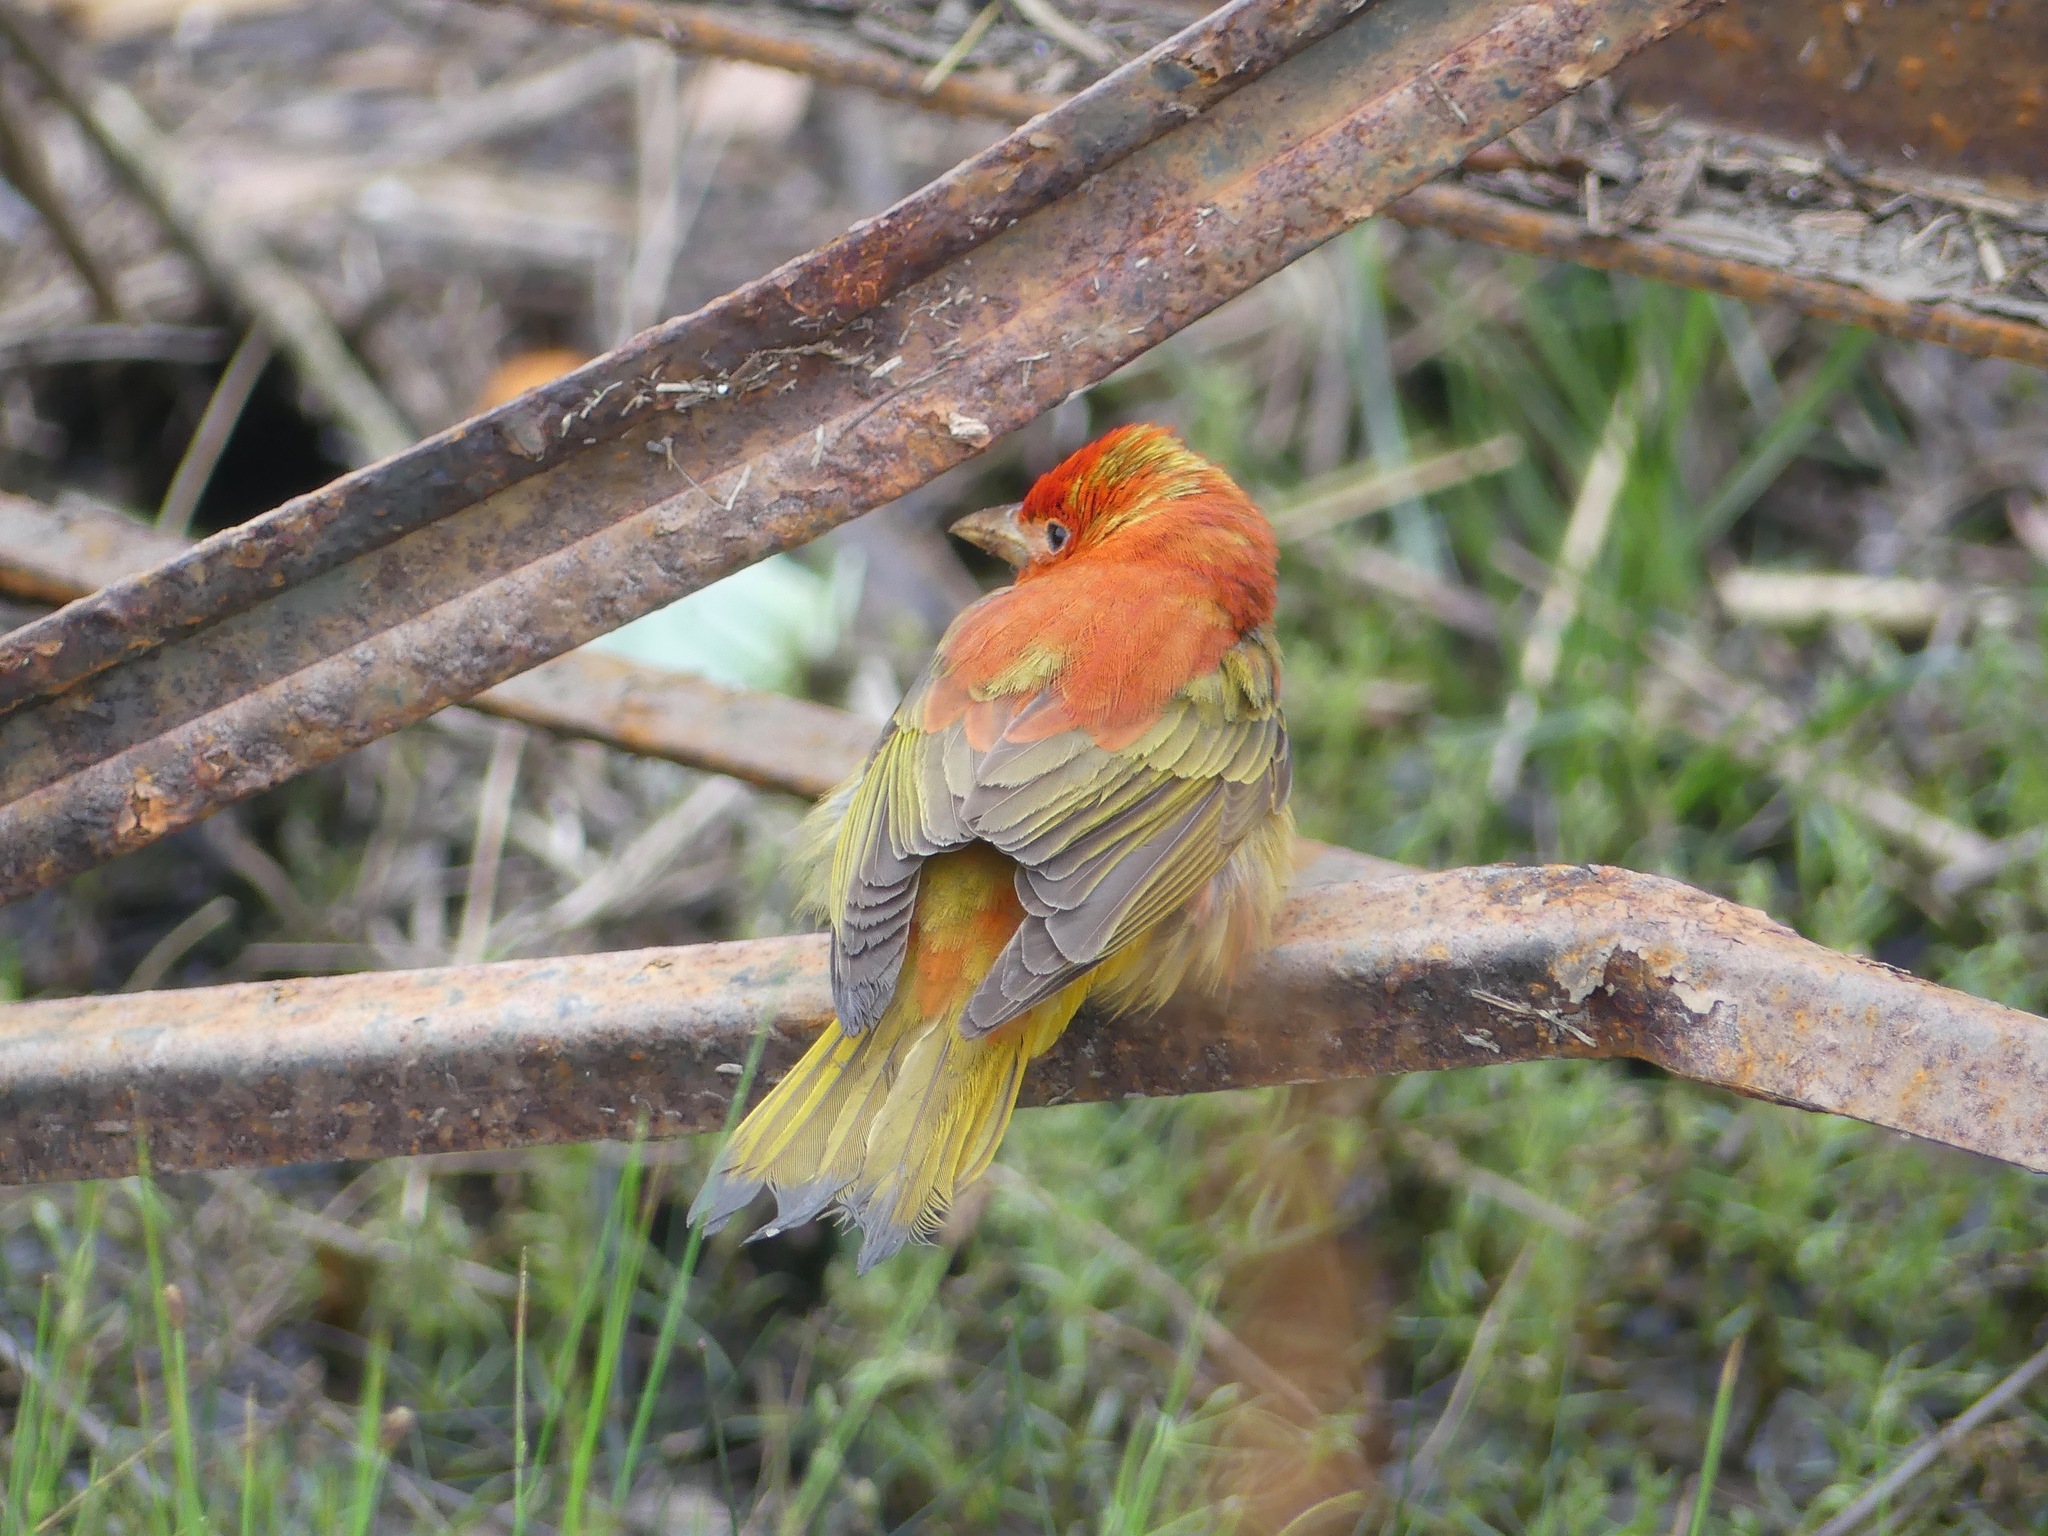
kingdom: Animalia
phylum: Chordata
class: Aves
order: Passeriformes
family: Cardinalidae
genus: Piranga
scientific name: Piranga rubra
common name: Summer tanager
